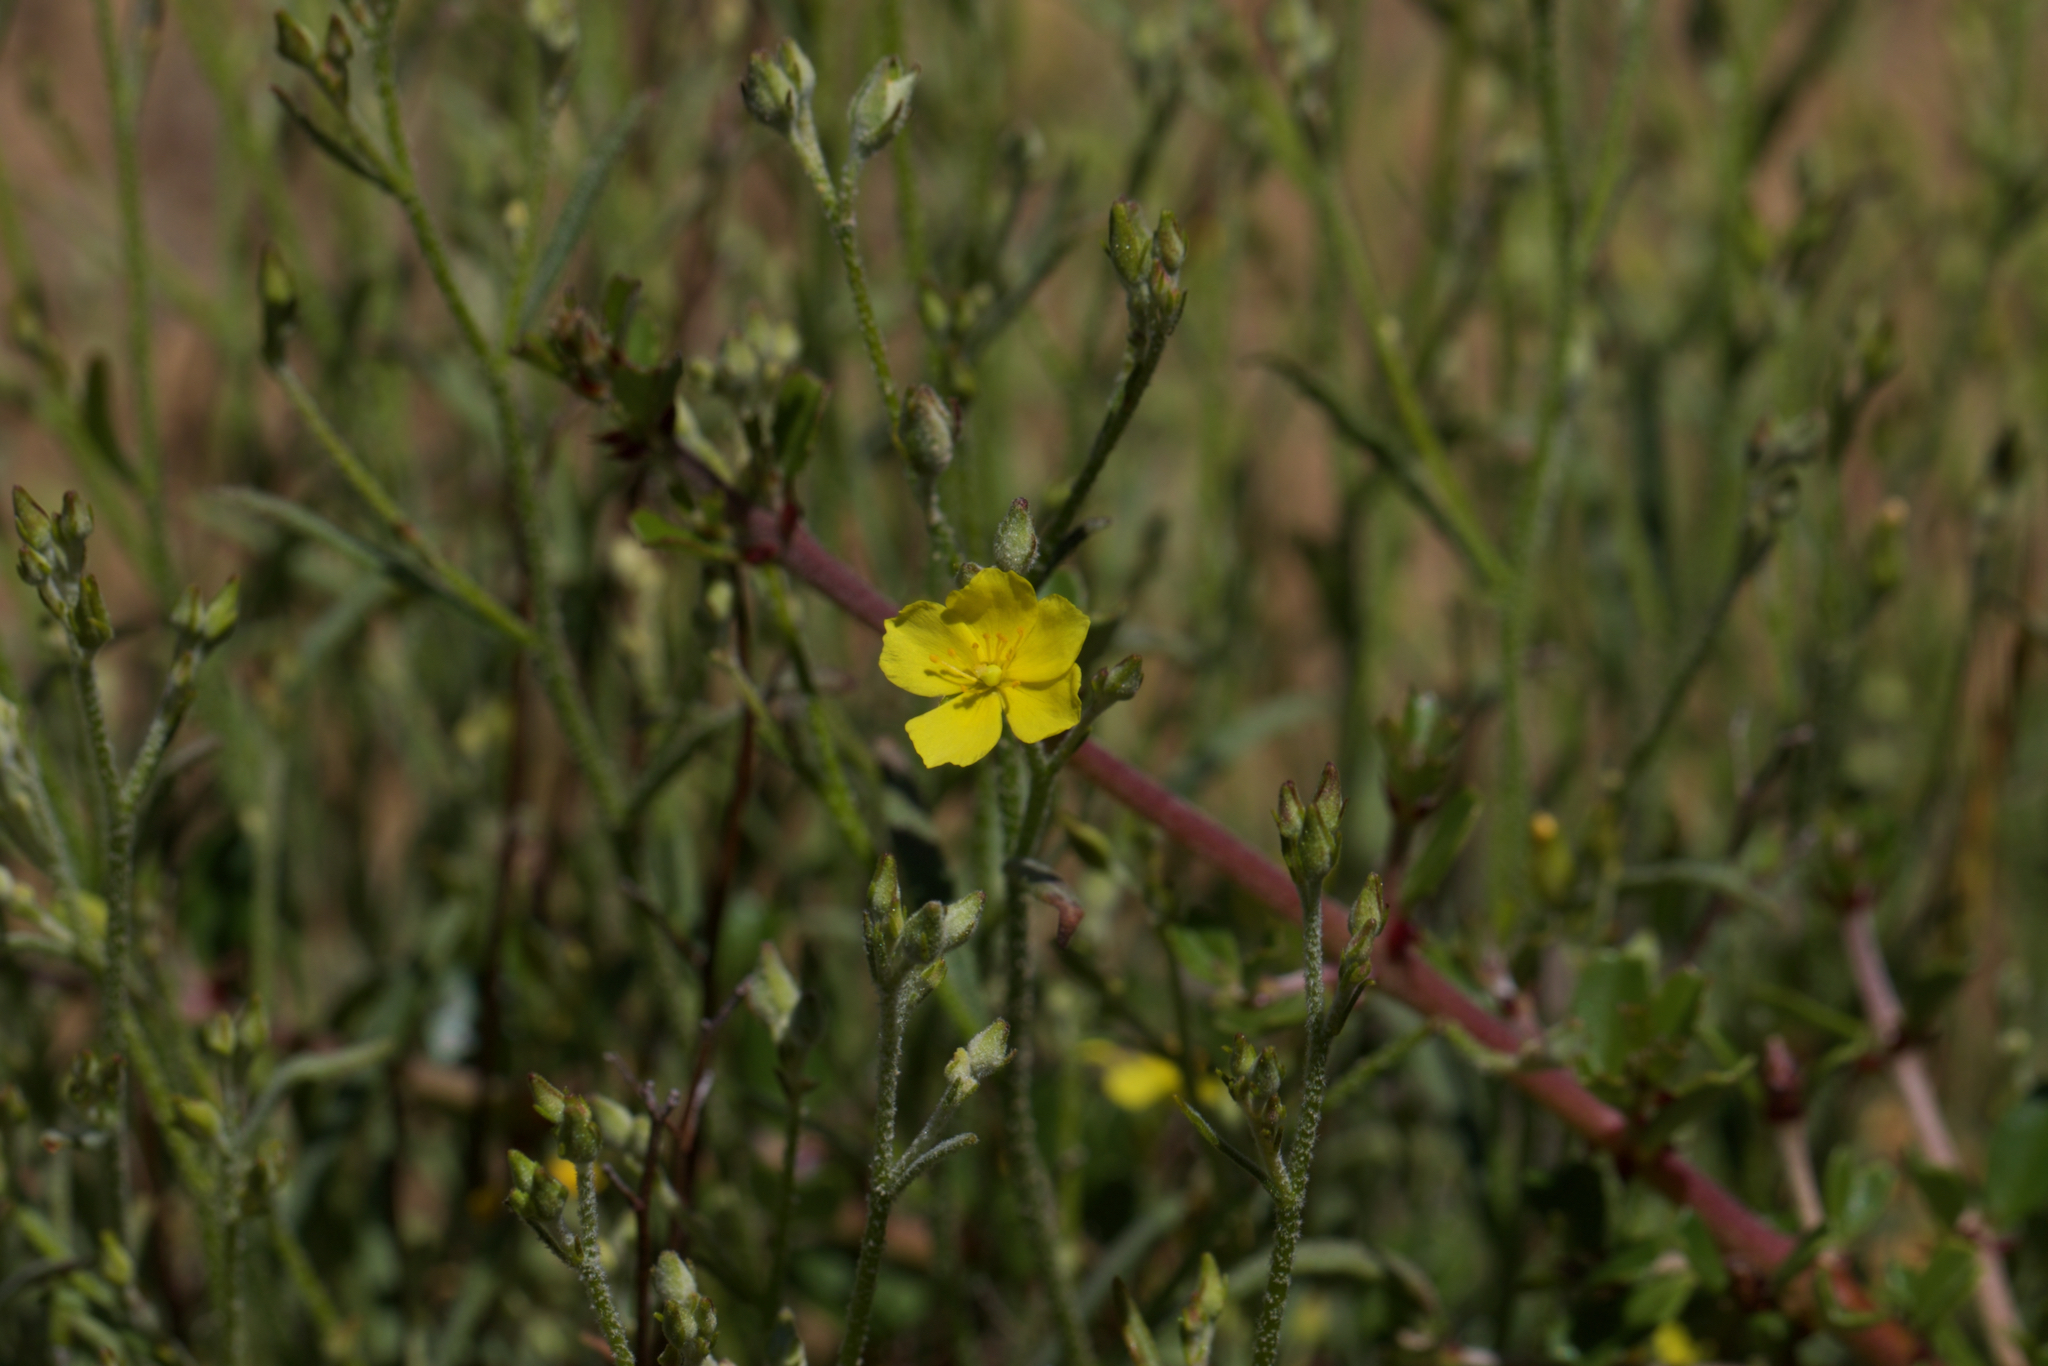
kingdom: Plantae
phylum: Tracheophyta
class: Magnoliopsida
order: Malvales
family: Cistaceae
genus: Crocanthemum
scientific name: Crocanthemum scoparium
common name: Broom-rose
